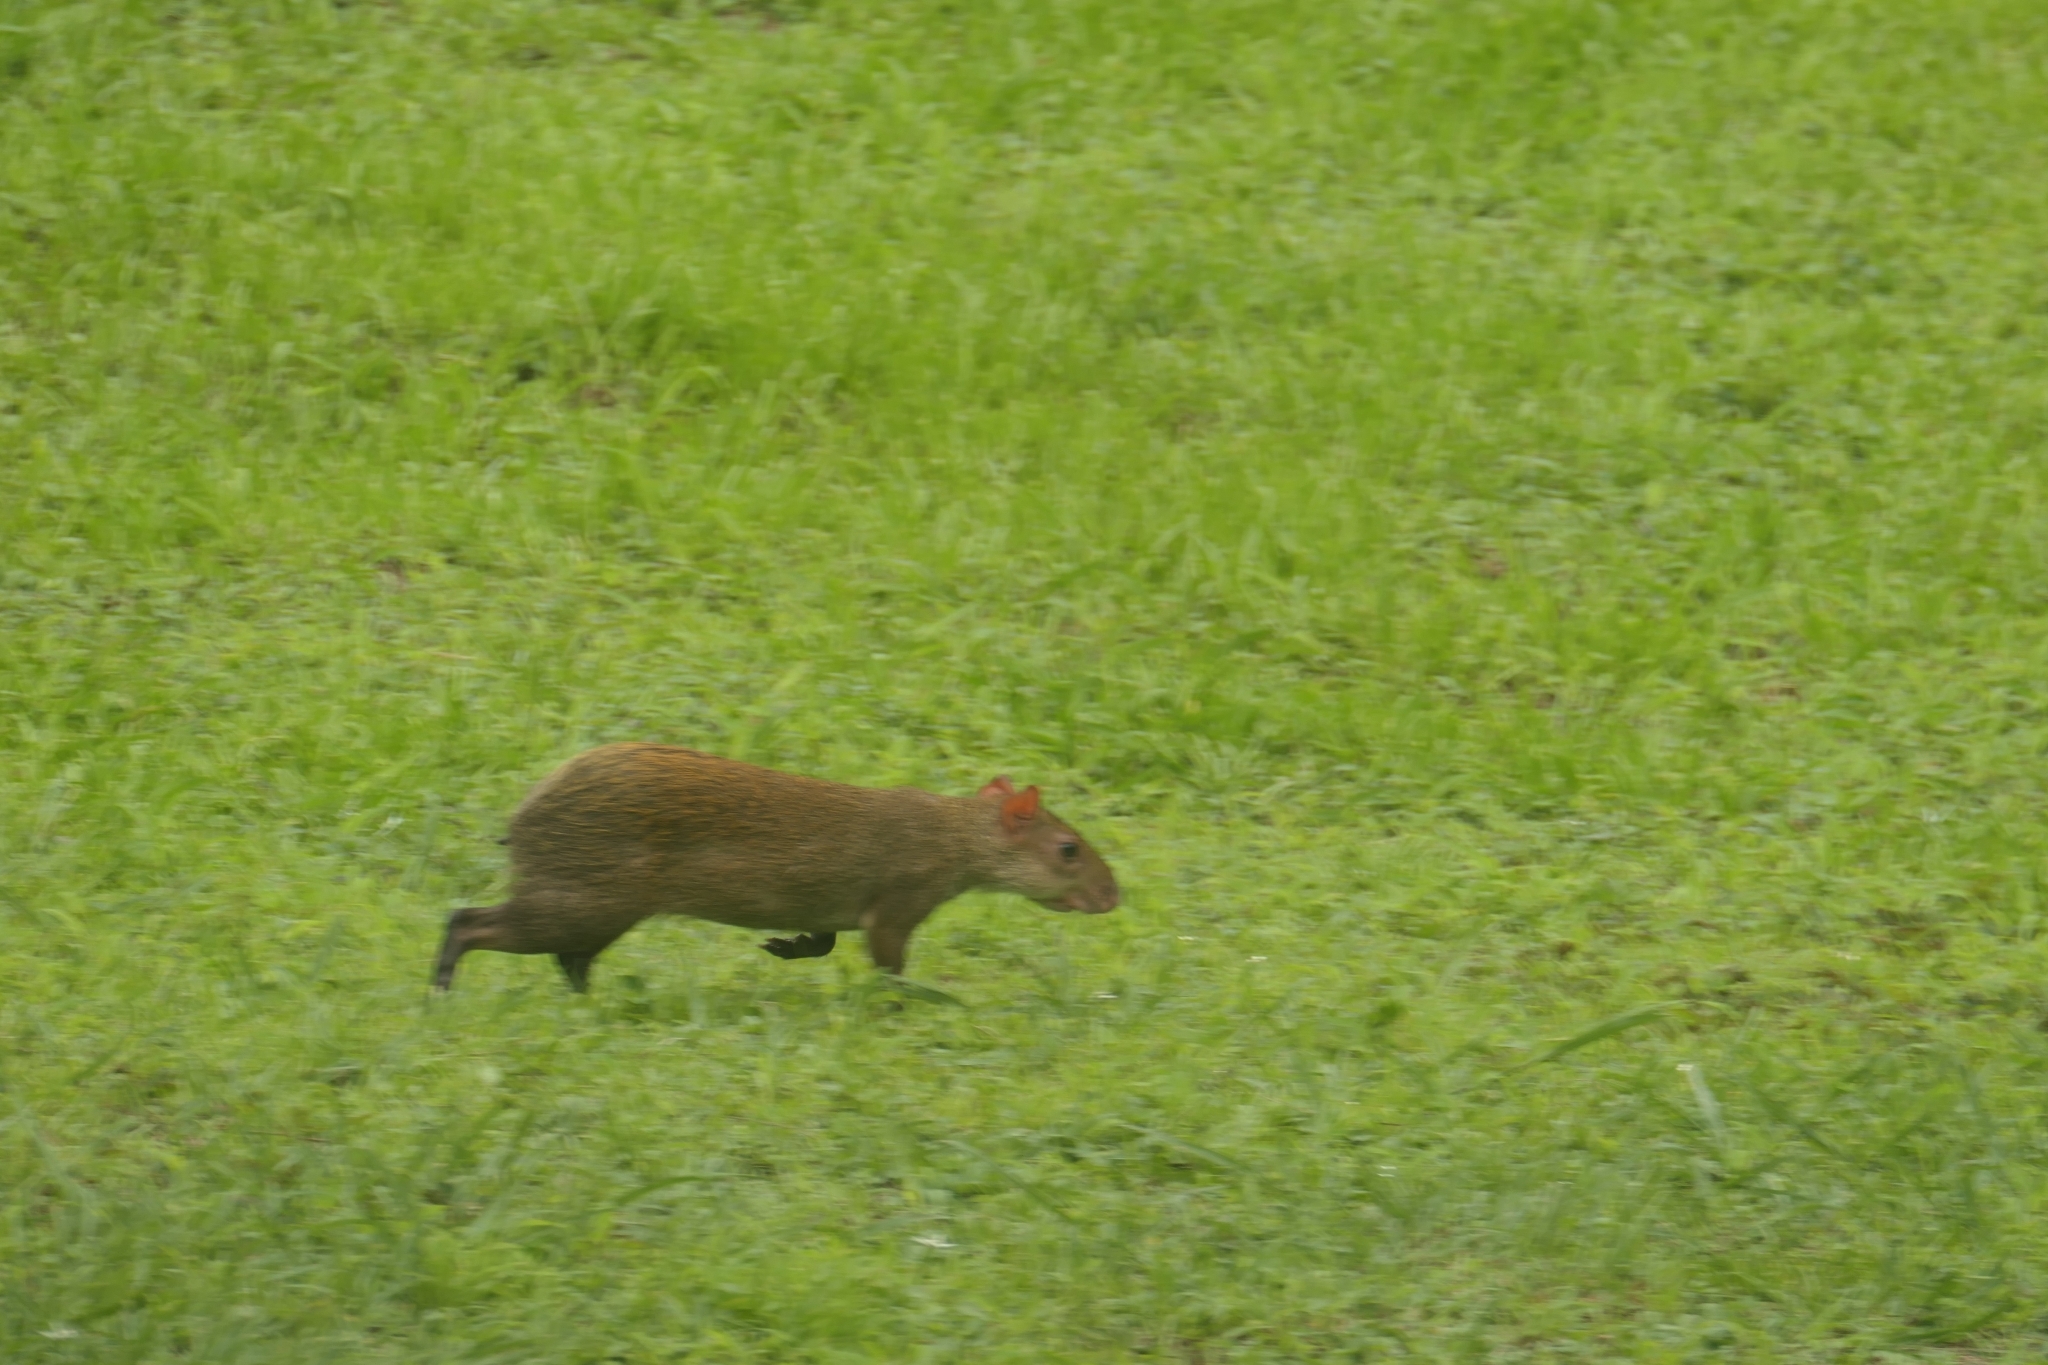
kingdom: Animalia
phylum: Chordata
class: Mammalia
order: Rodentia
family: Dasyproctidae
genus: Dasyprocta
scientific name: Dasyprocta punctata
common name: Central american agouti
